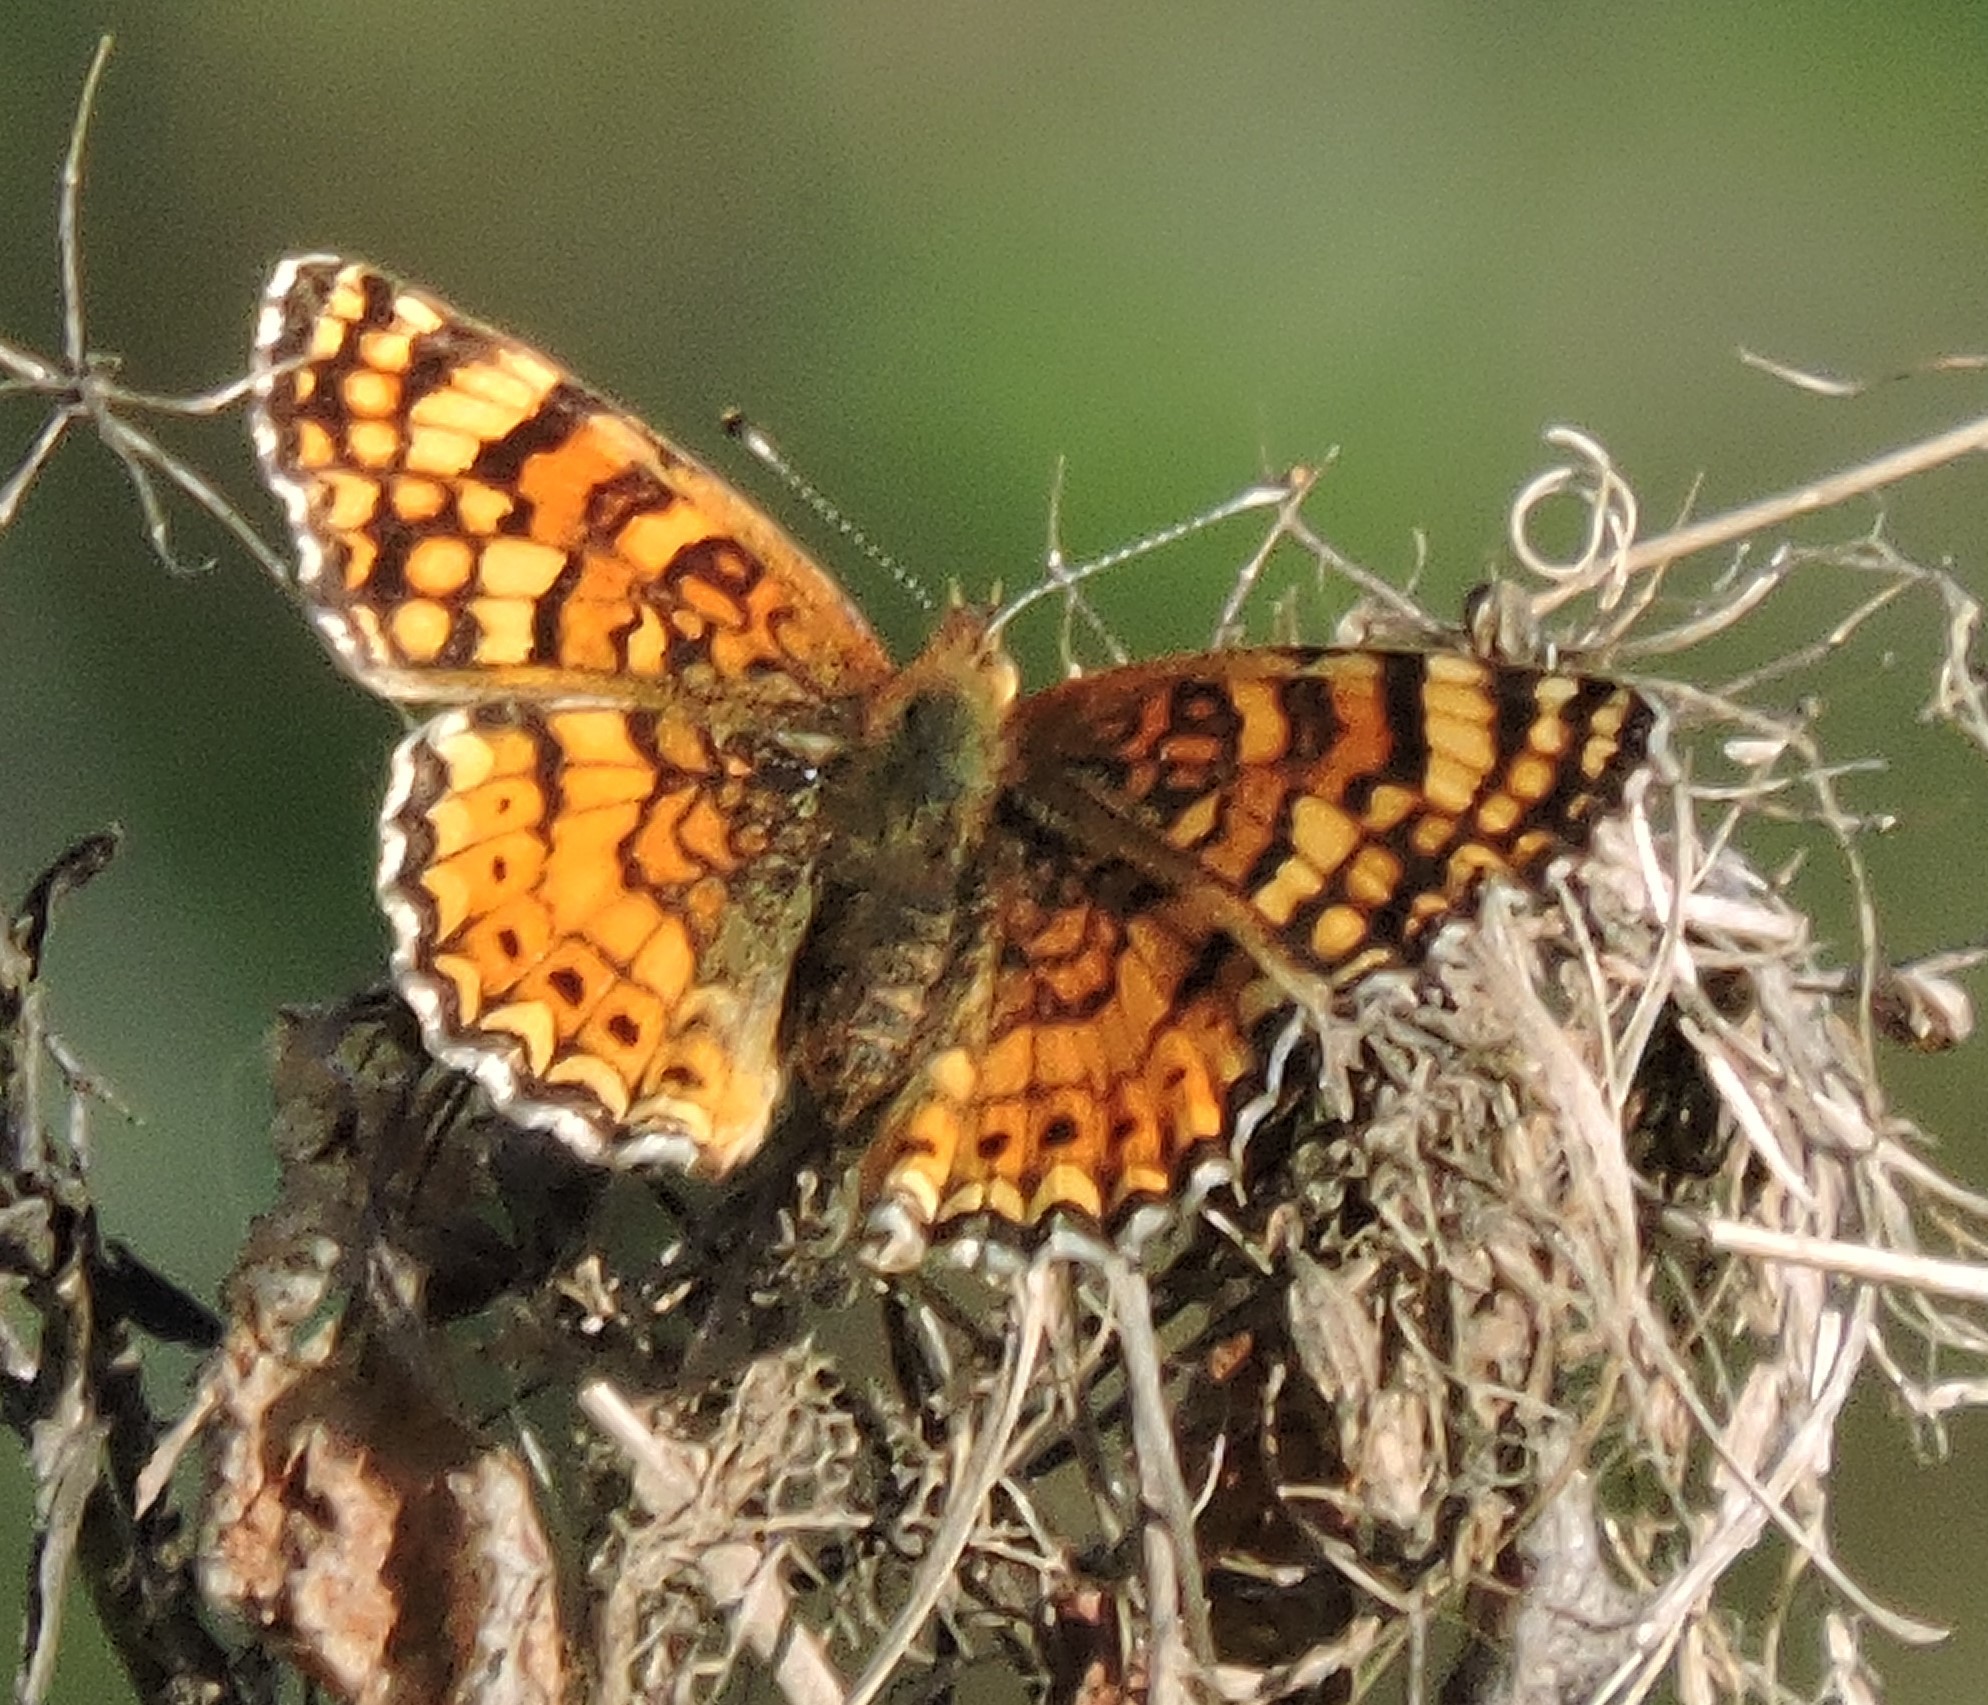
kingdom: Animalia
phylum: Arthropoda
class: Insecta
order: Lepidoptera
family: Nymphalidae
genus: Eresia
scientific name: Eresia aveyrona
